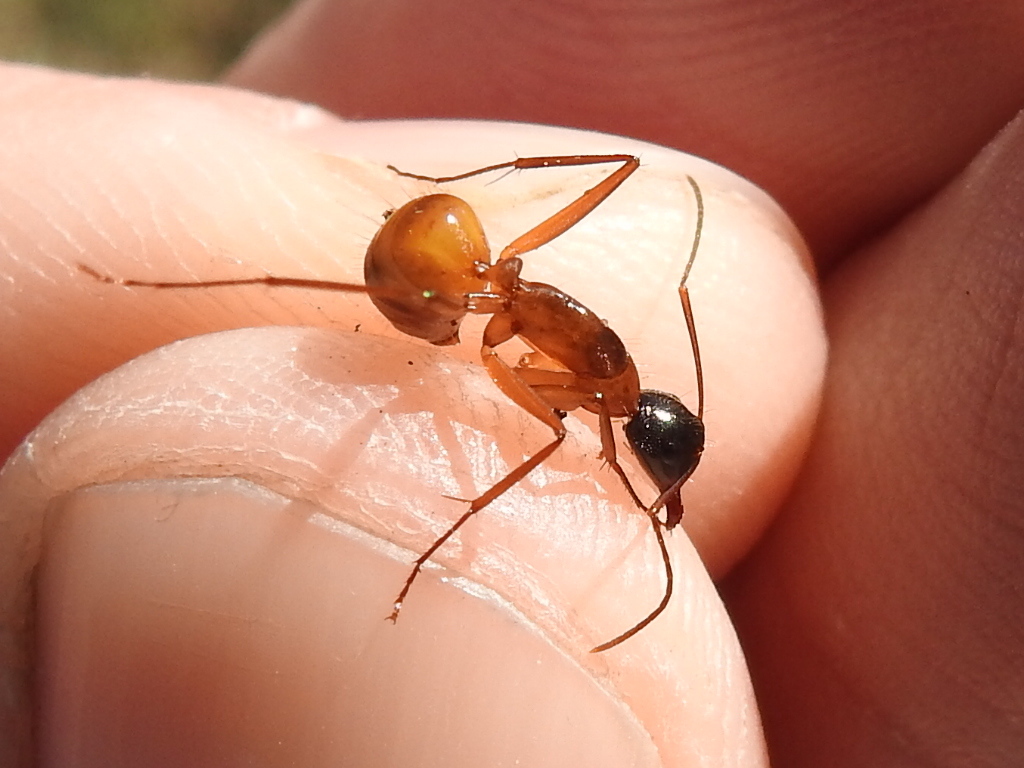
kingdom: Animalia
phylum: Arthropoda
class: Insecta
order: Hymenoptera
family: Formicidae
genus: Camponotus
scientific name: Camponotus americanus
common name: American carpenter ant
